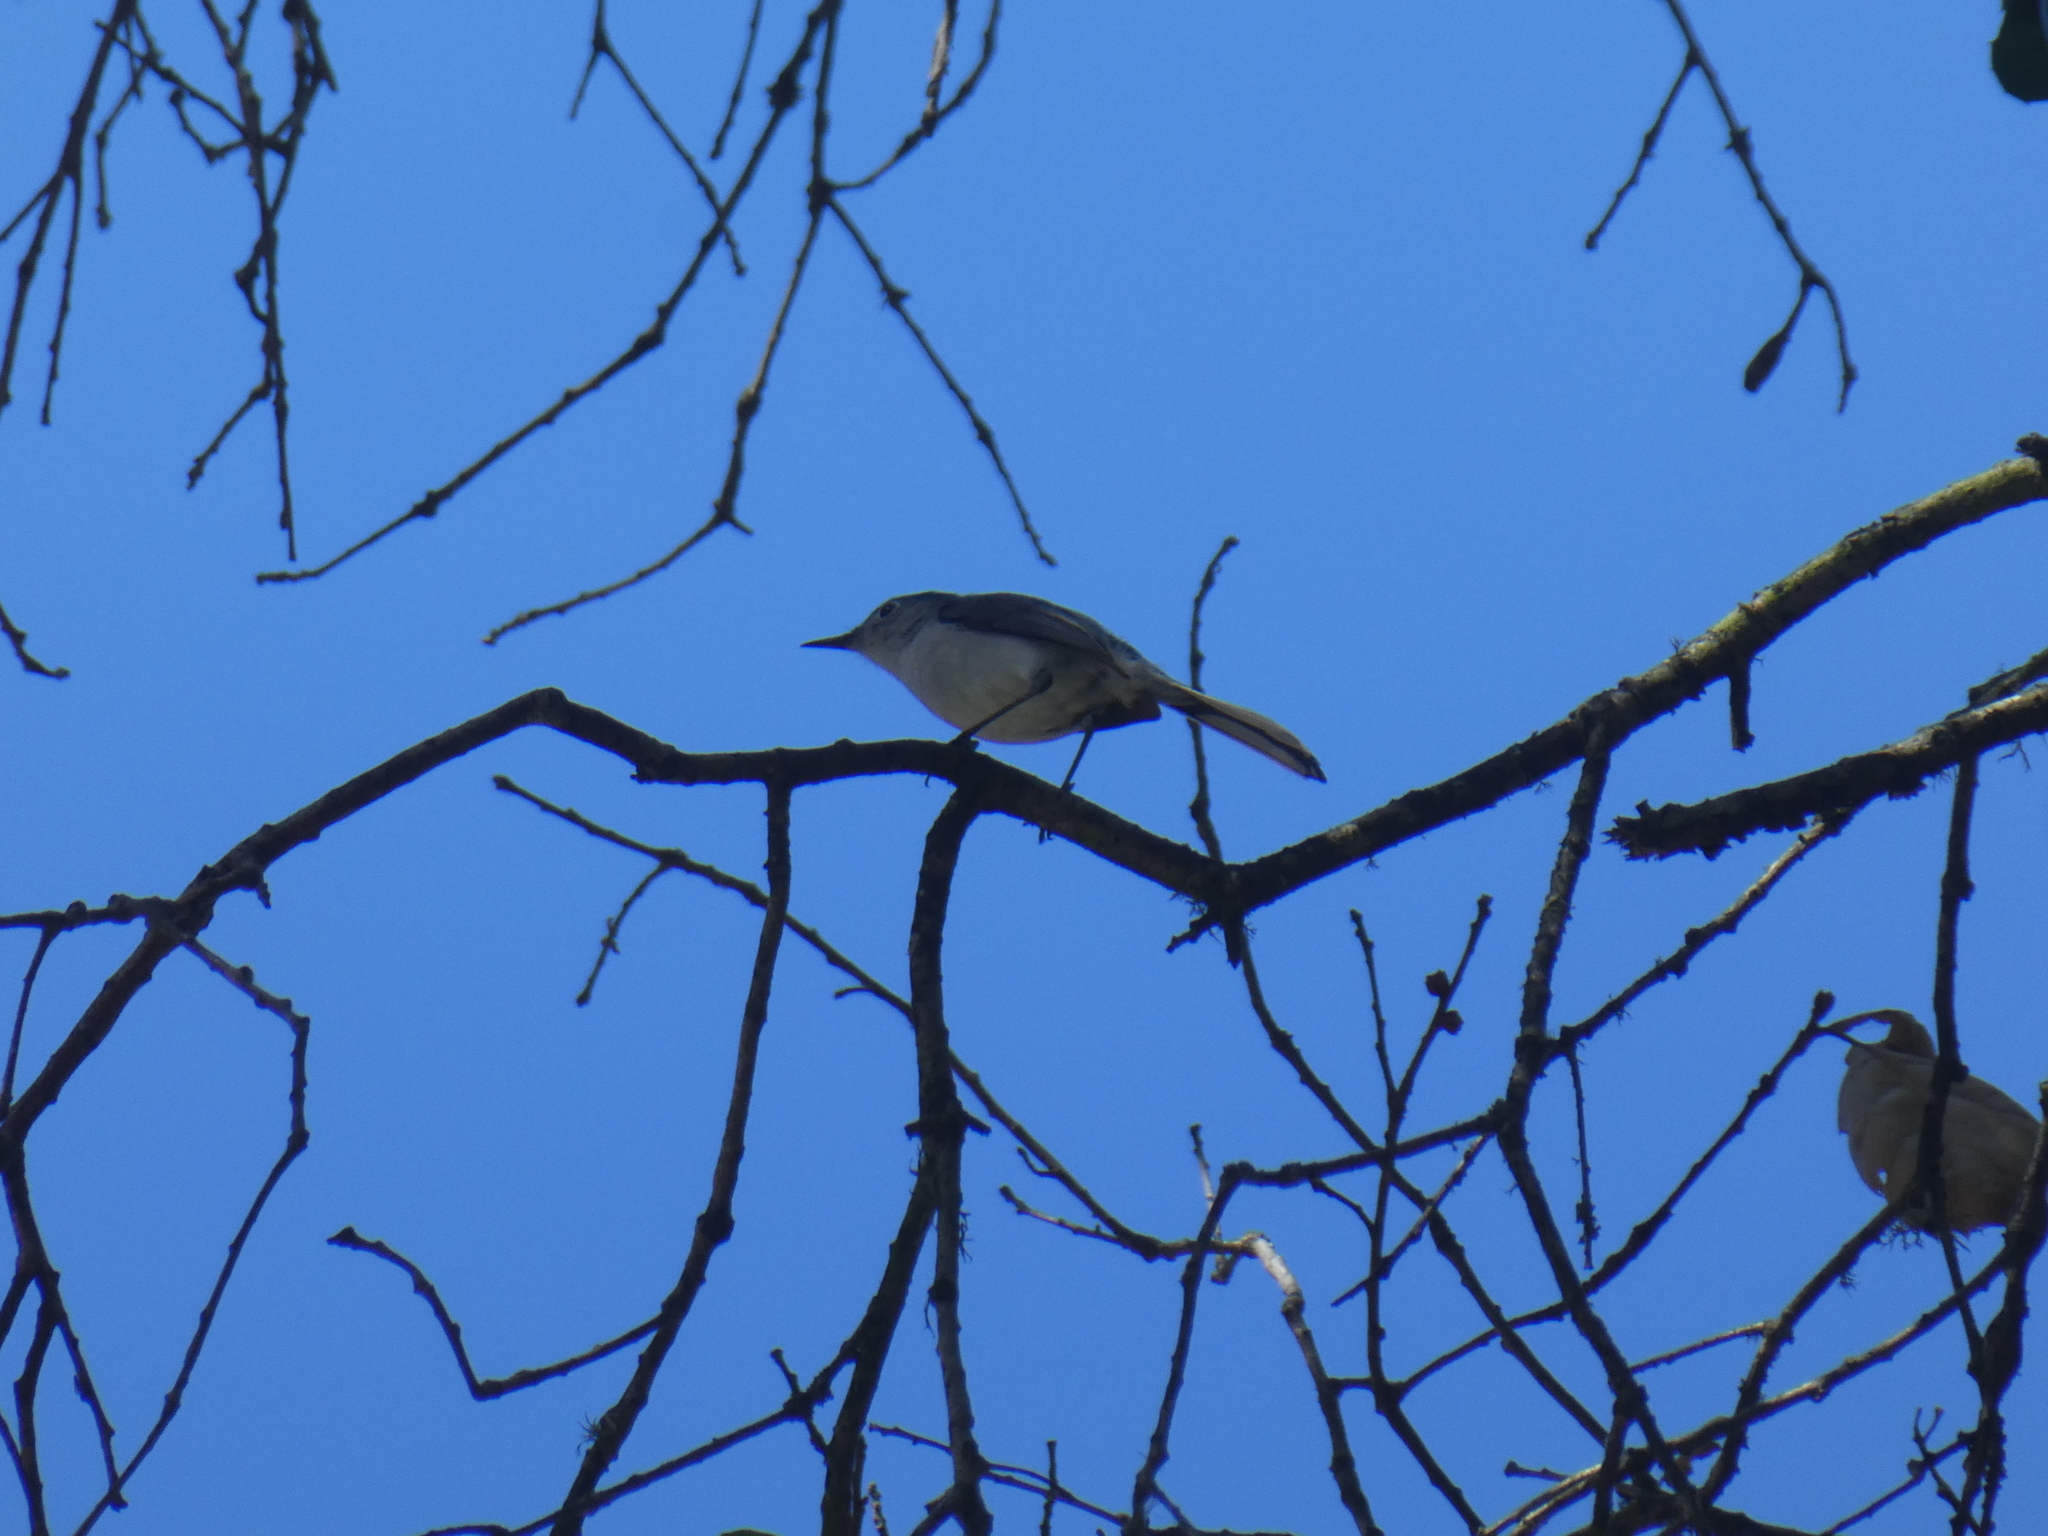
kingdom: Animalia
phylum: Chordata
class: Aves
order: Passeriformes
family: Polioptilidae
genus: Polioptila
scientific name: Polioptila caerulea
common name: Blue-gray gnatcatcher
